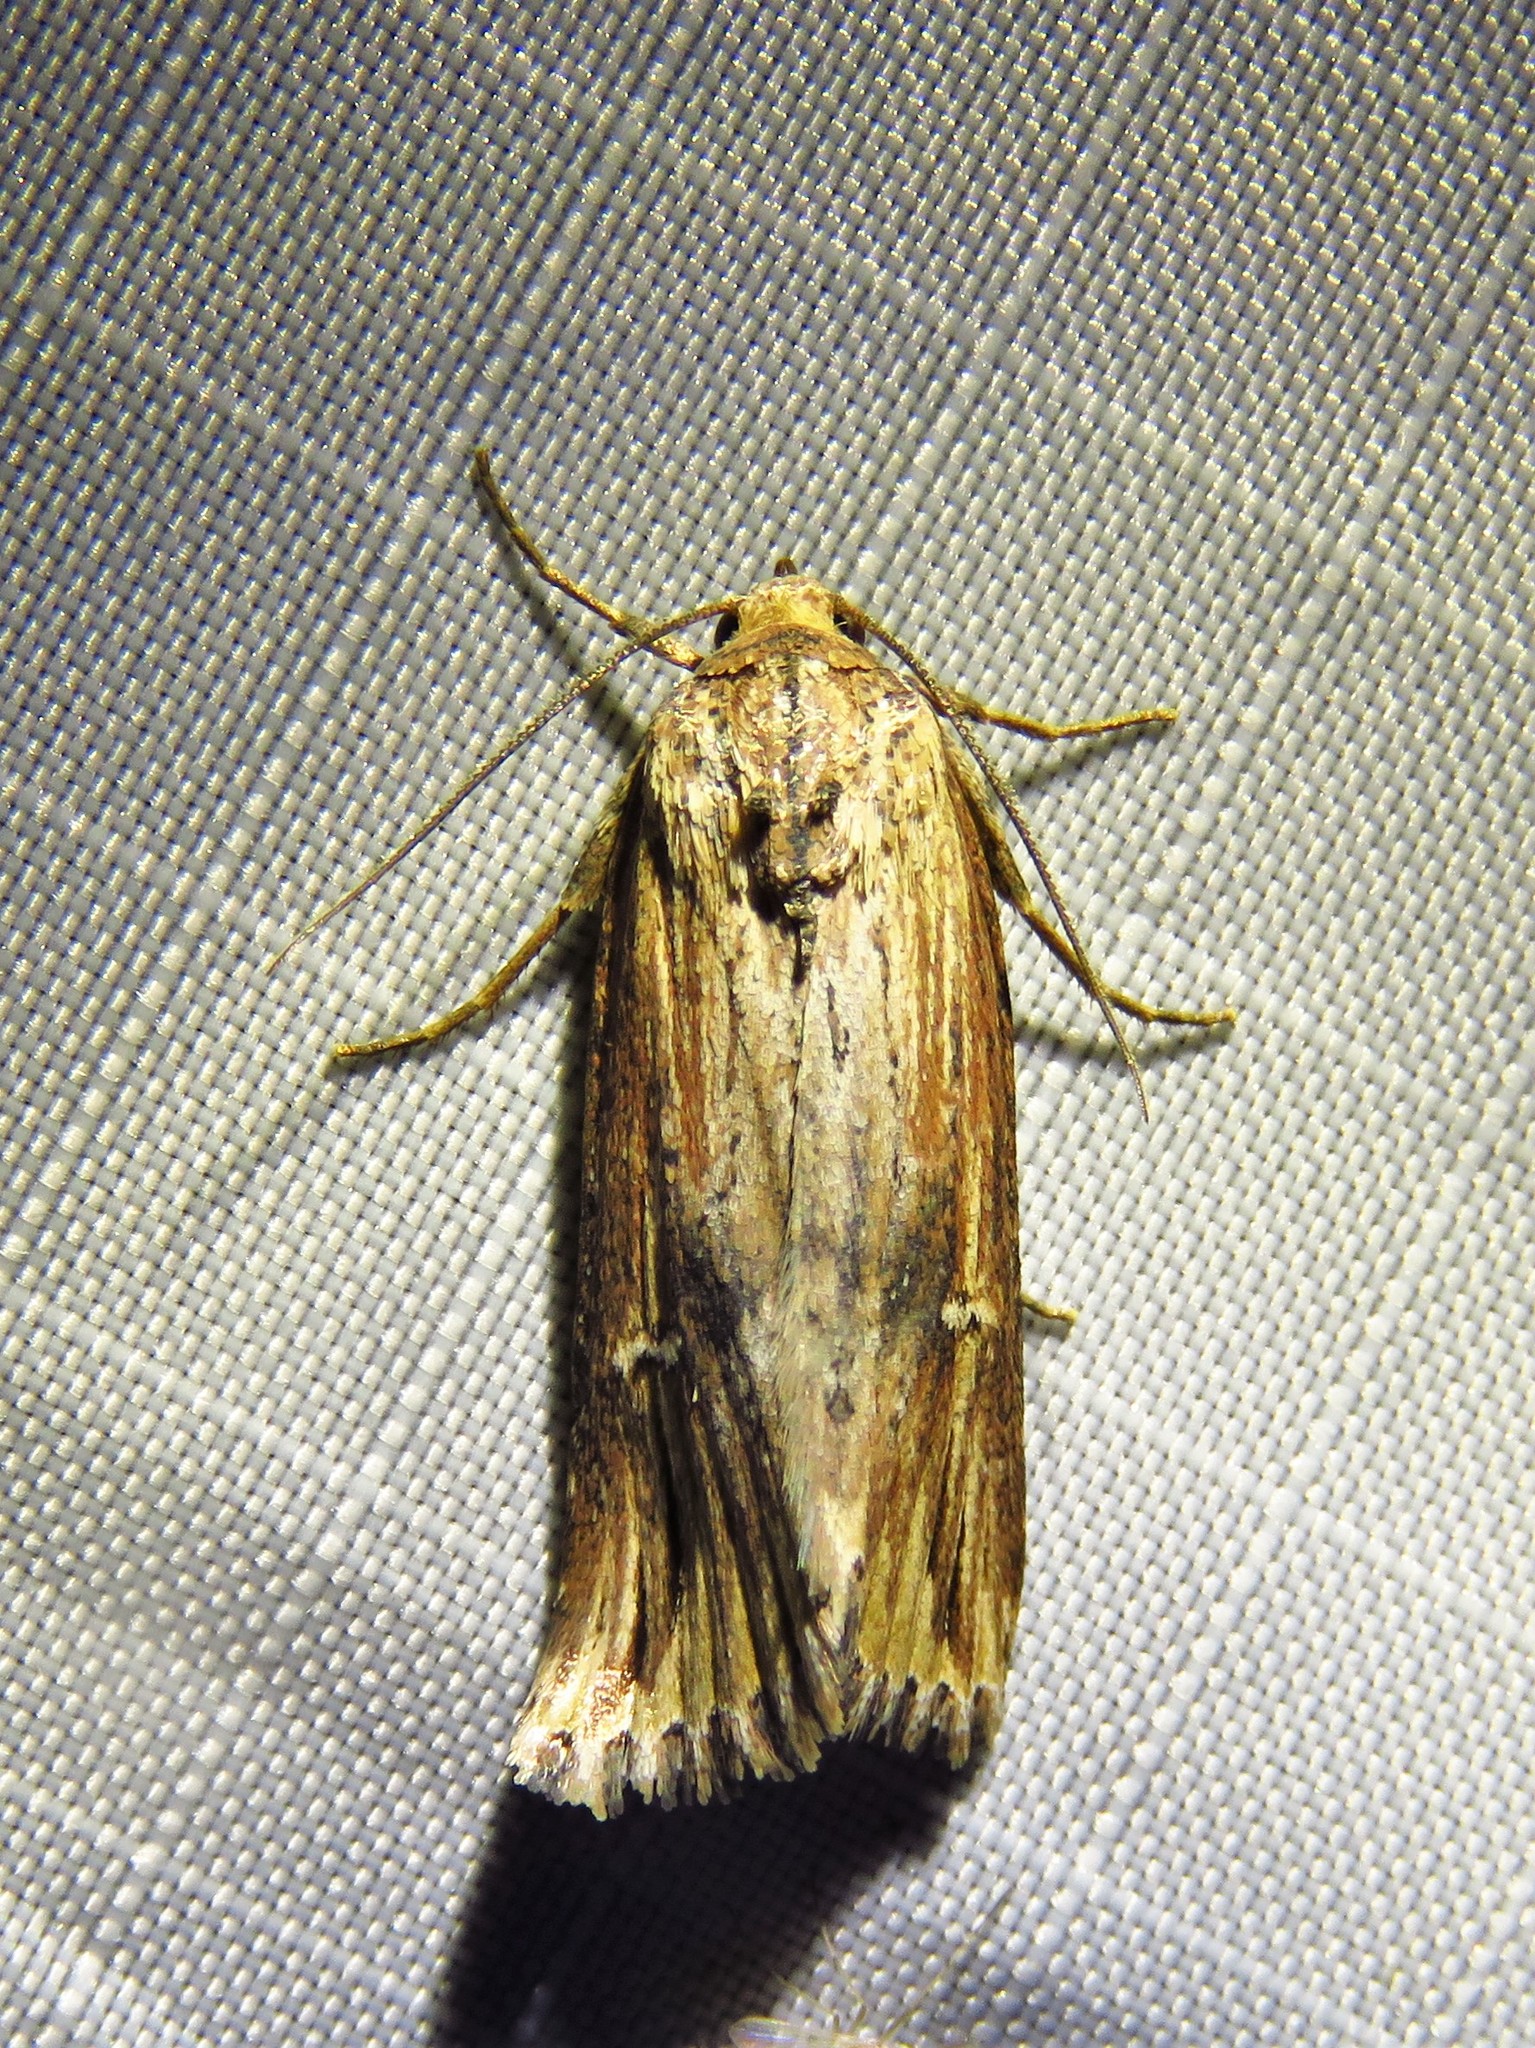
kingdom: Animalia
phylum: Arthropoda
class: Insecta
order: Lepidoptera
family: Noctuidae
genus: Crambodes
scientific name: Crambodes talidiformis
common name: Verbena moth
